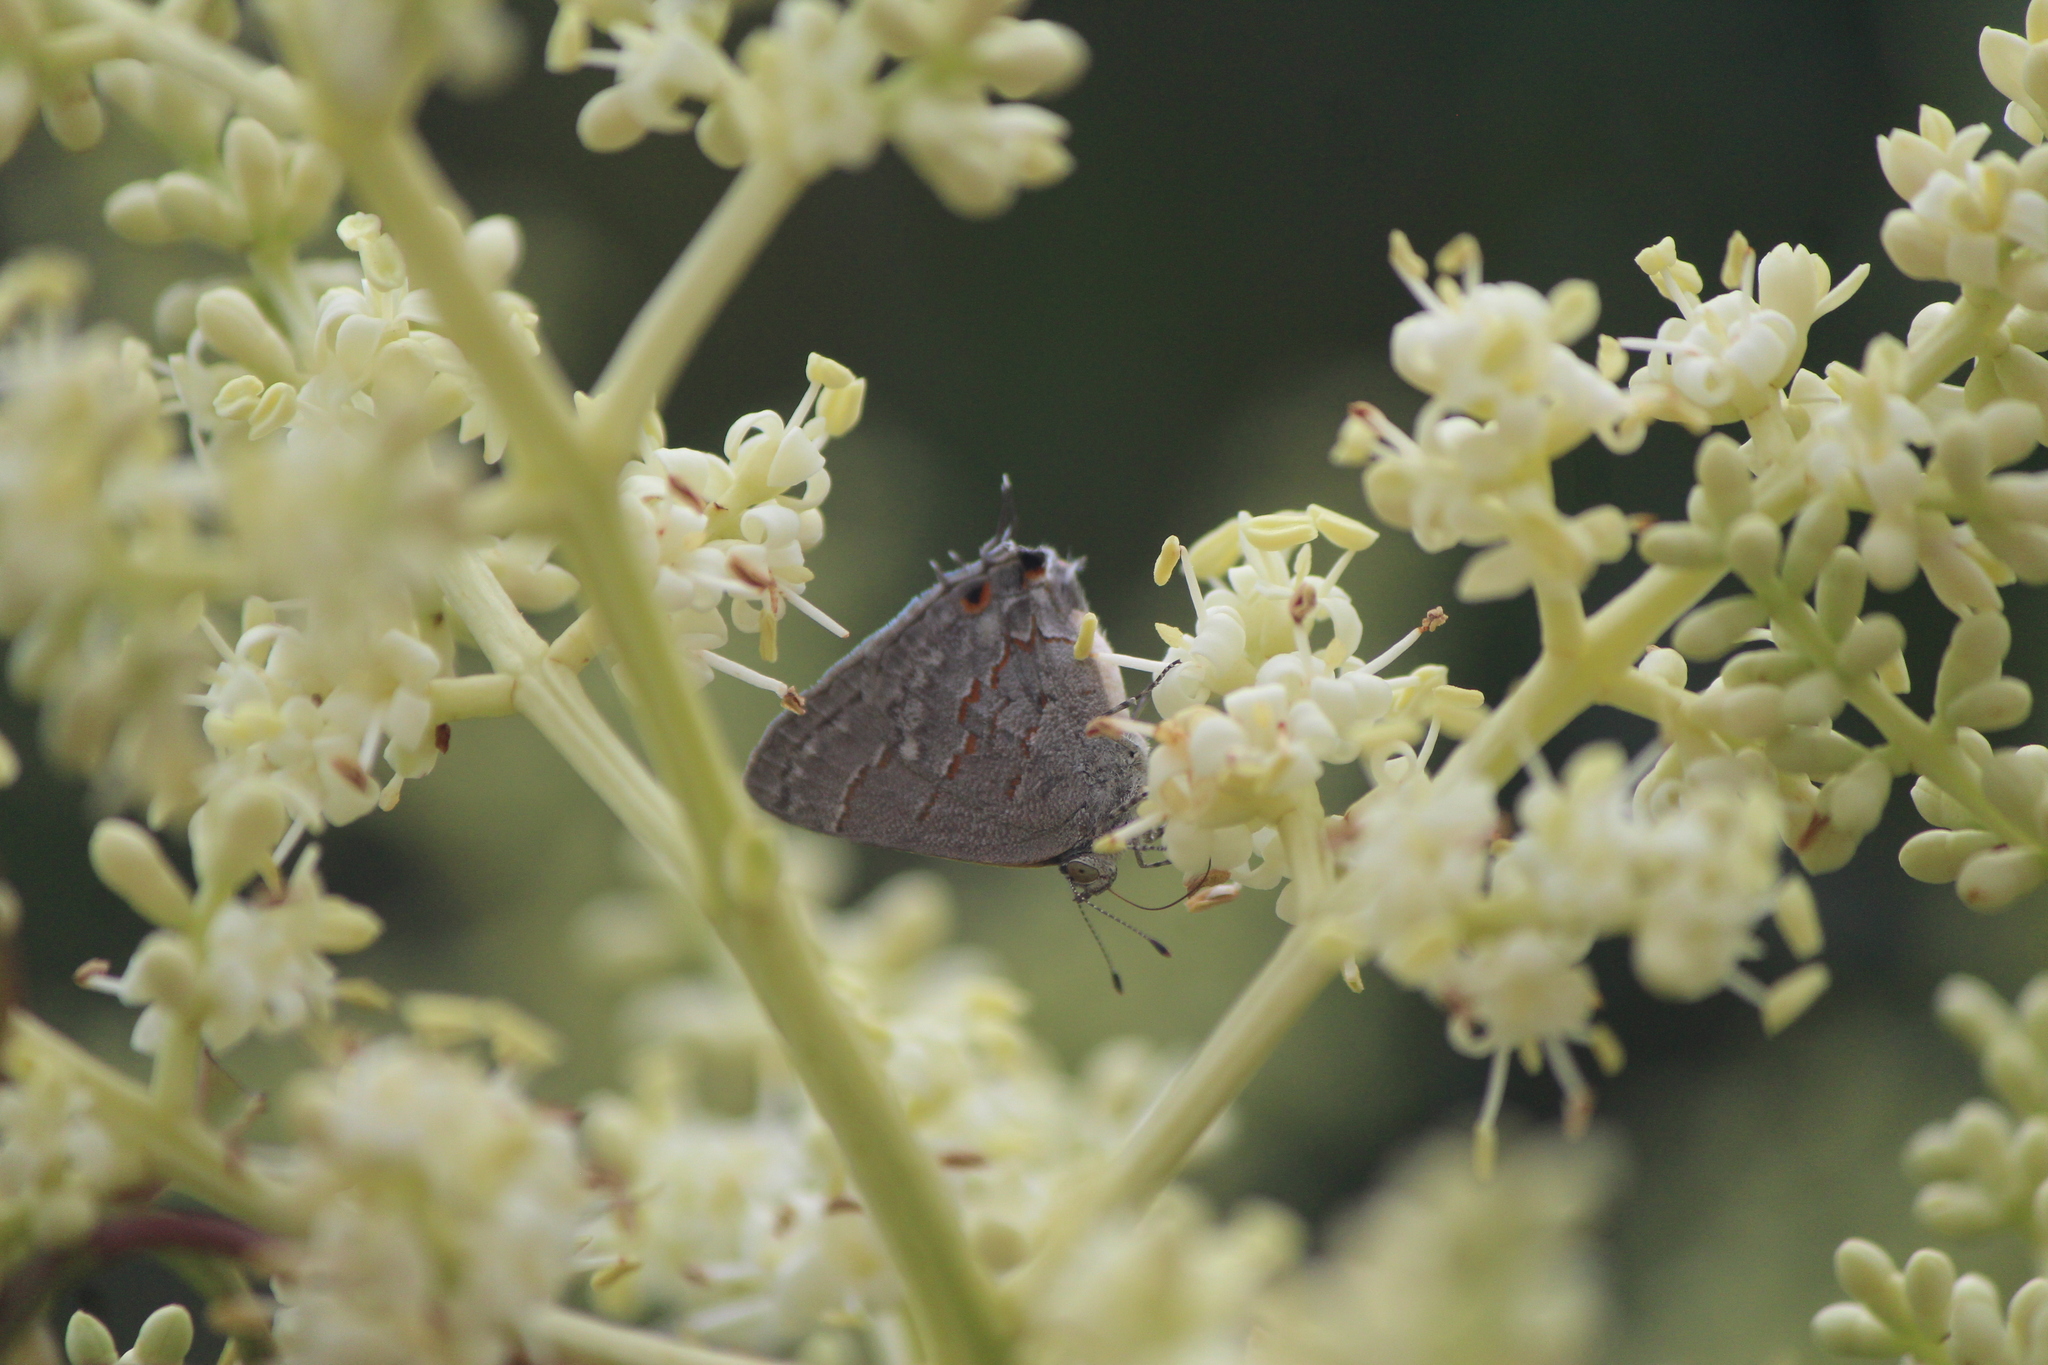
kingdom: Animalia
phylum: Arthropoda
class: Insecta
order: Lepidoptera
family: Lycaenidae
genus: Ministrymon
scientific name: Ministrymon leda
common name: Leda ministreak
